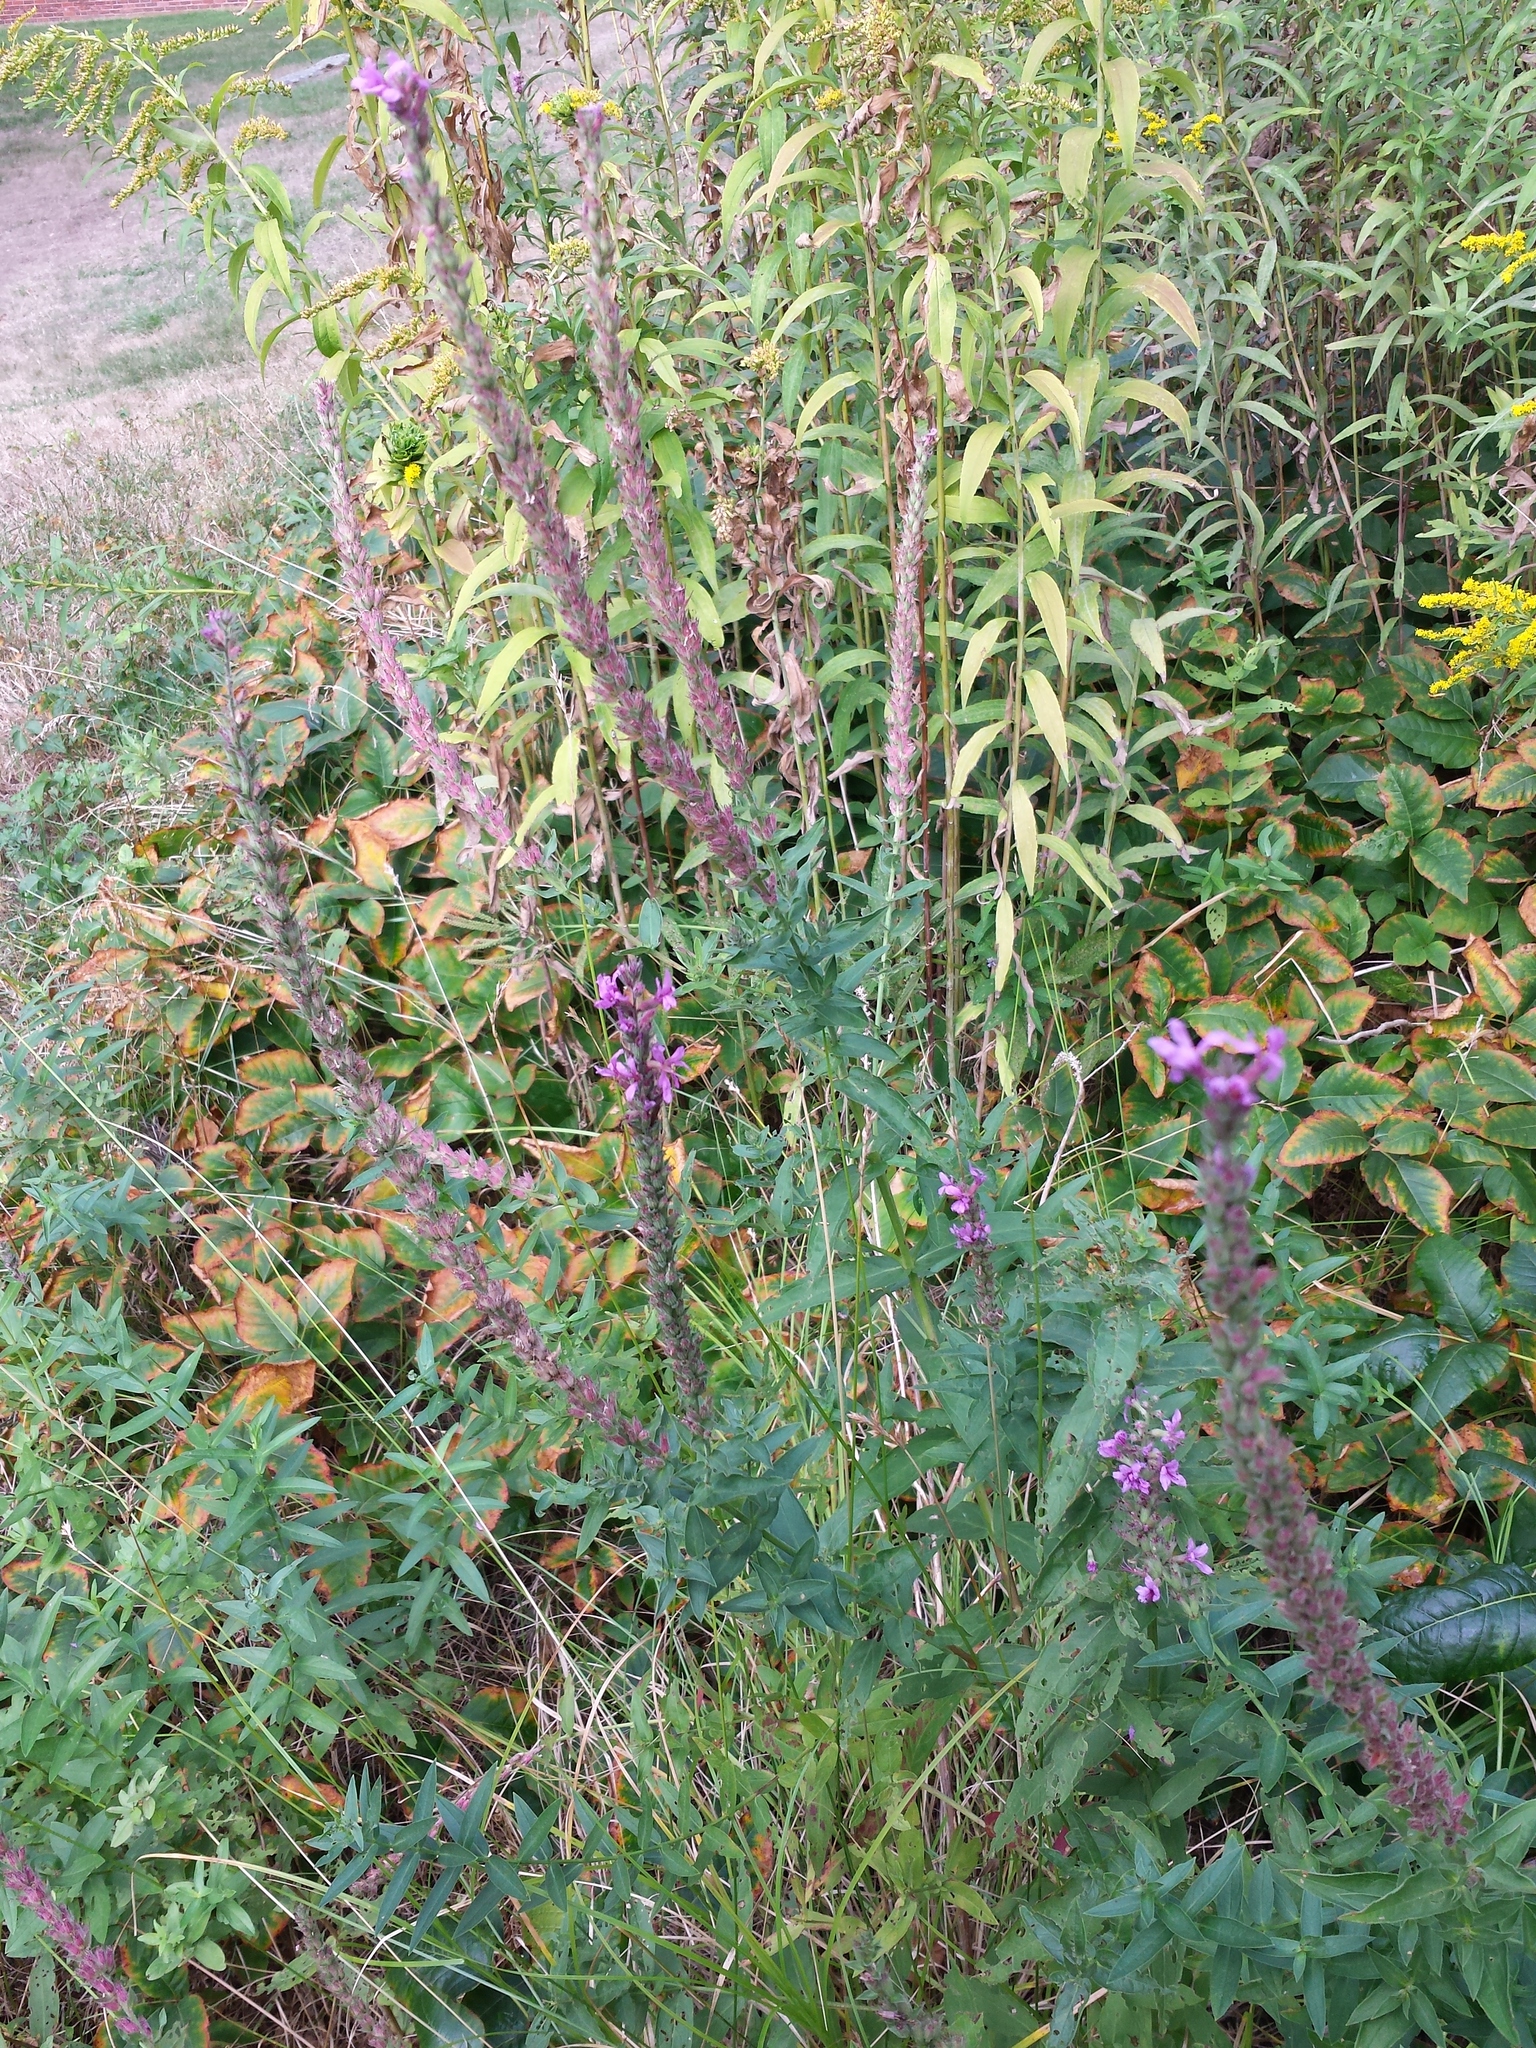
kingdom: Plantae
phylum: Tracheophyta
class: Magnoliopsida
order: Myrtales
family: Lythraceae
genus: Lythrum
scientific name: Lythrum salicaria
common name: Purple loosestrife
